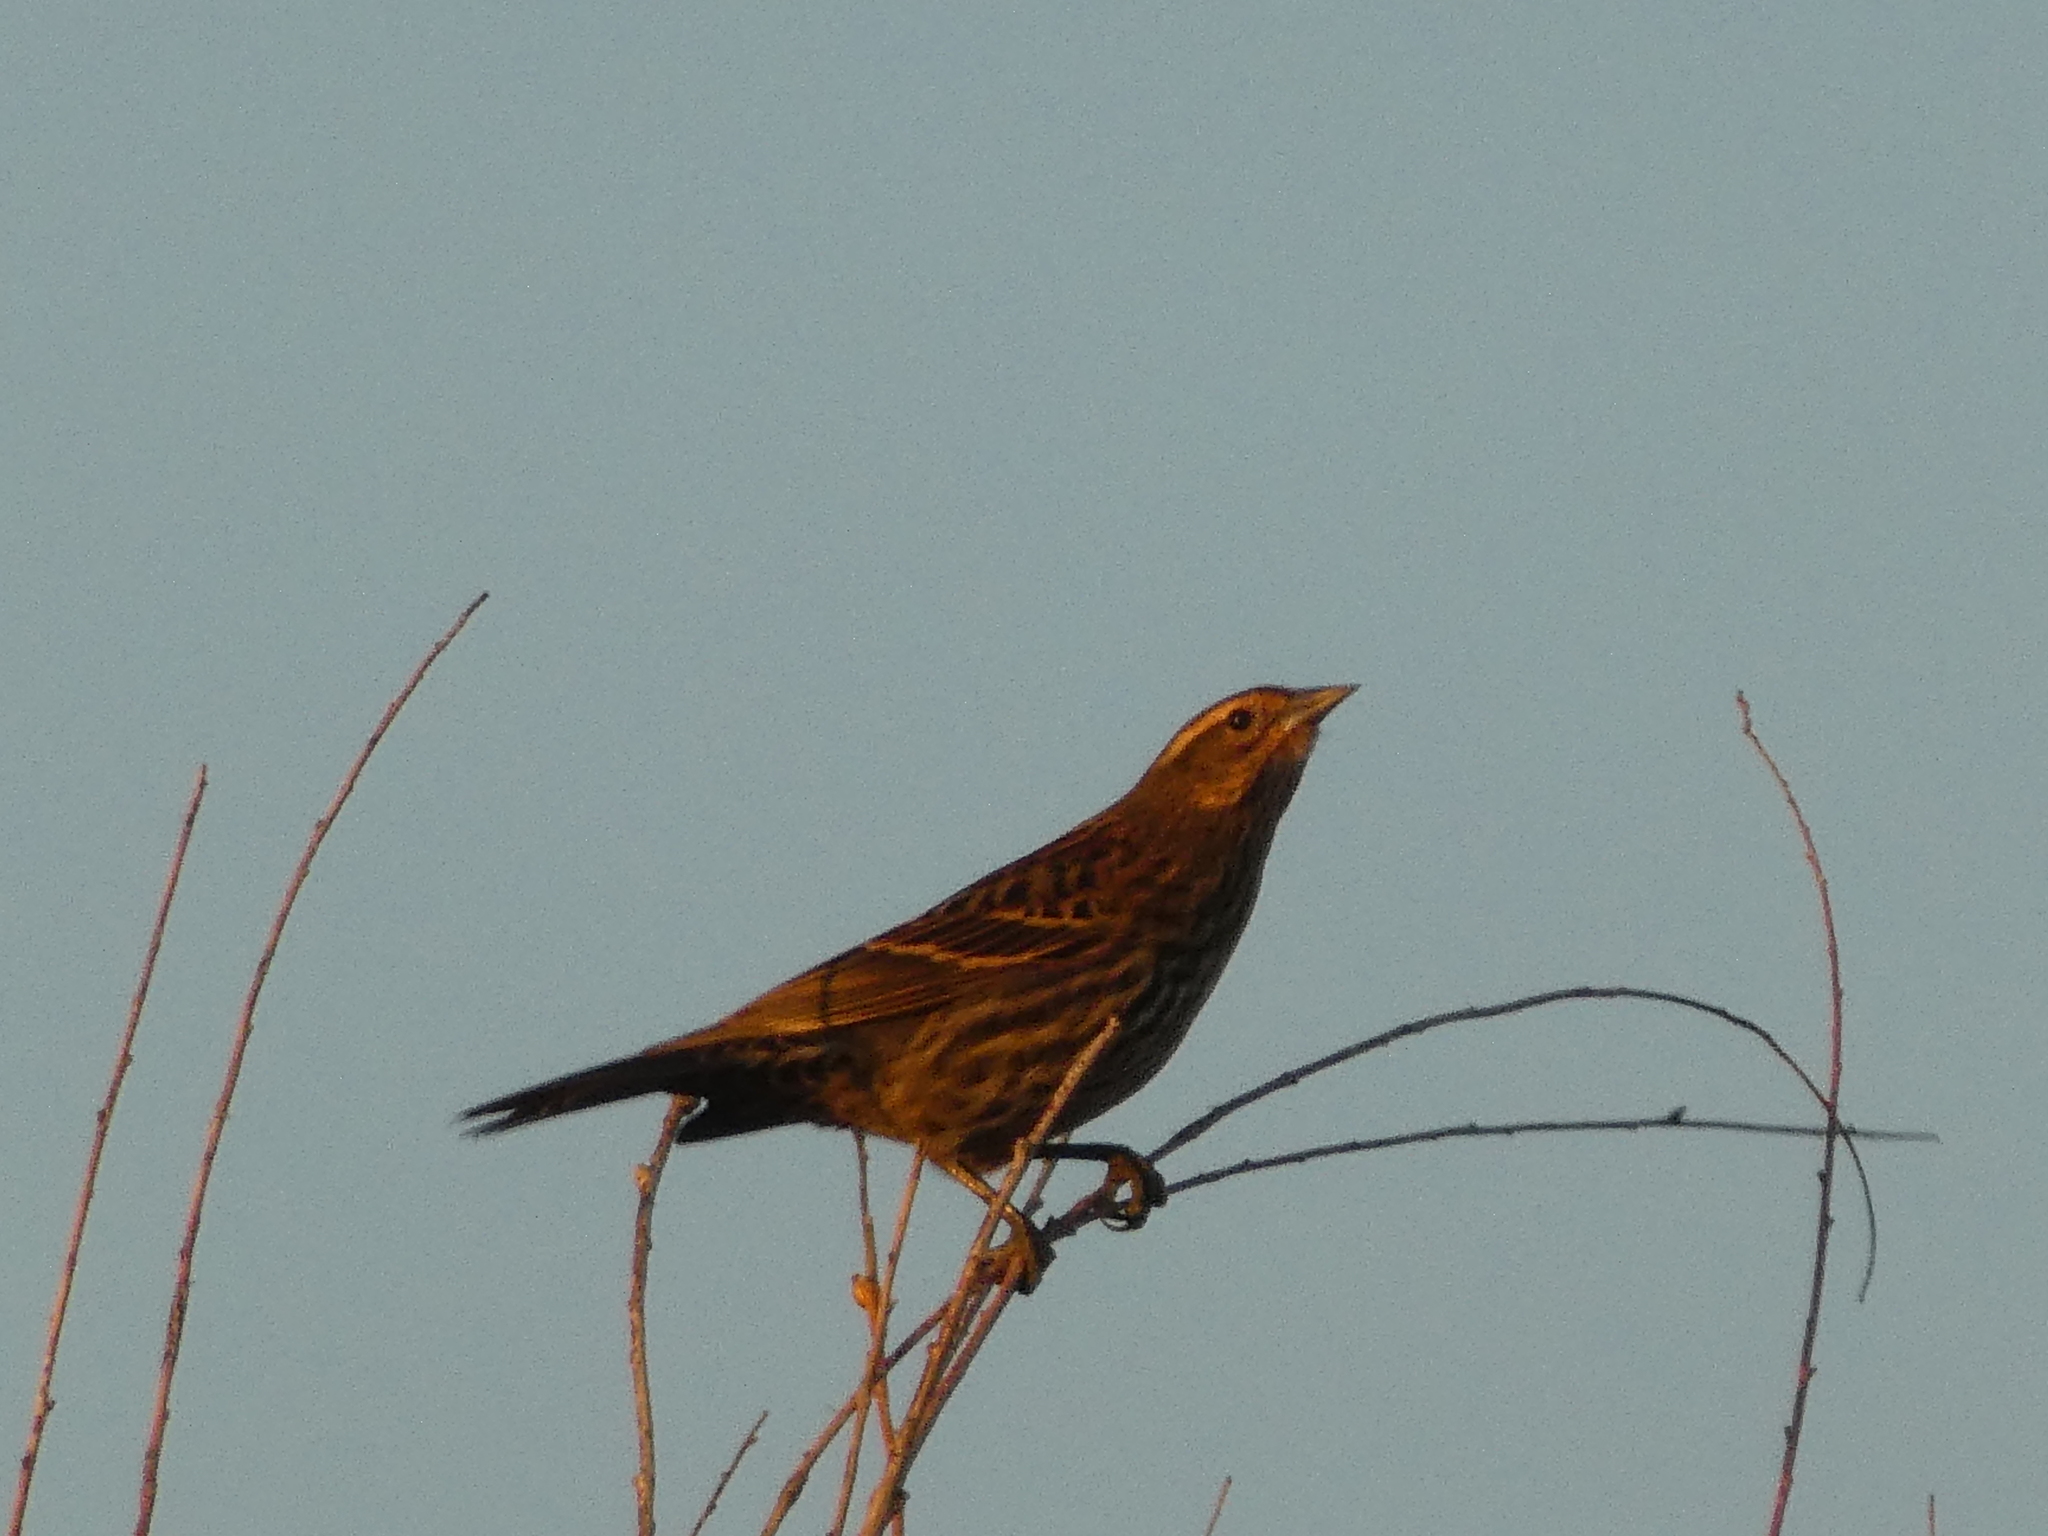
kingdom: Animalia
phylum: Chordata
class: Aves
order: Passeriformes
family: Icteridae
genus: Agelaius
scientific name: Agelaius phoeniceus
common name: Red-winged blackbird
